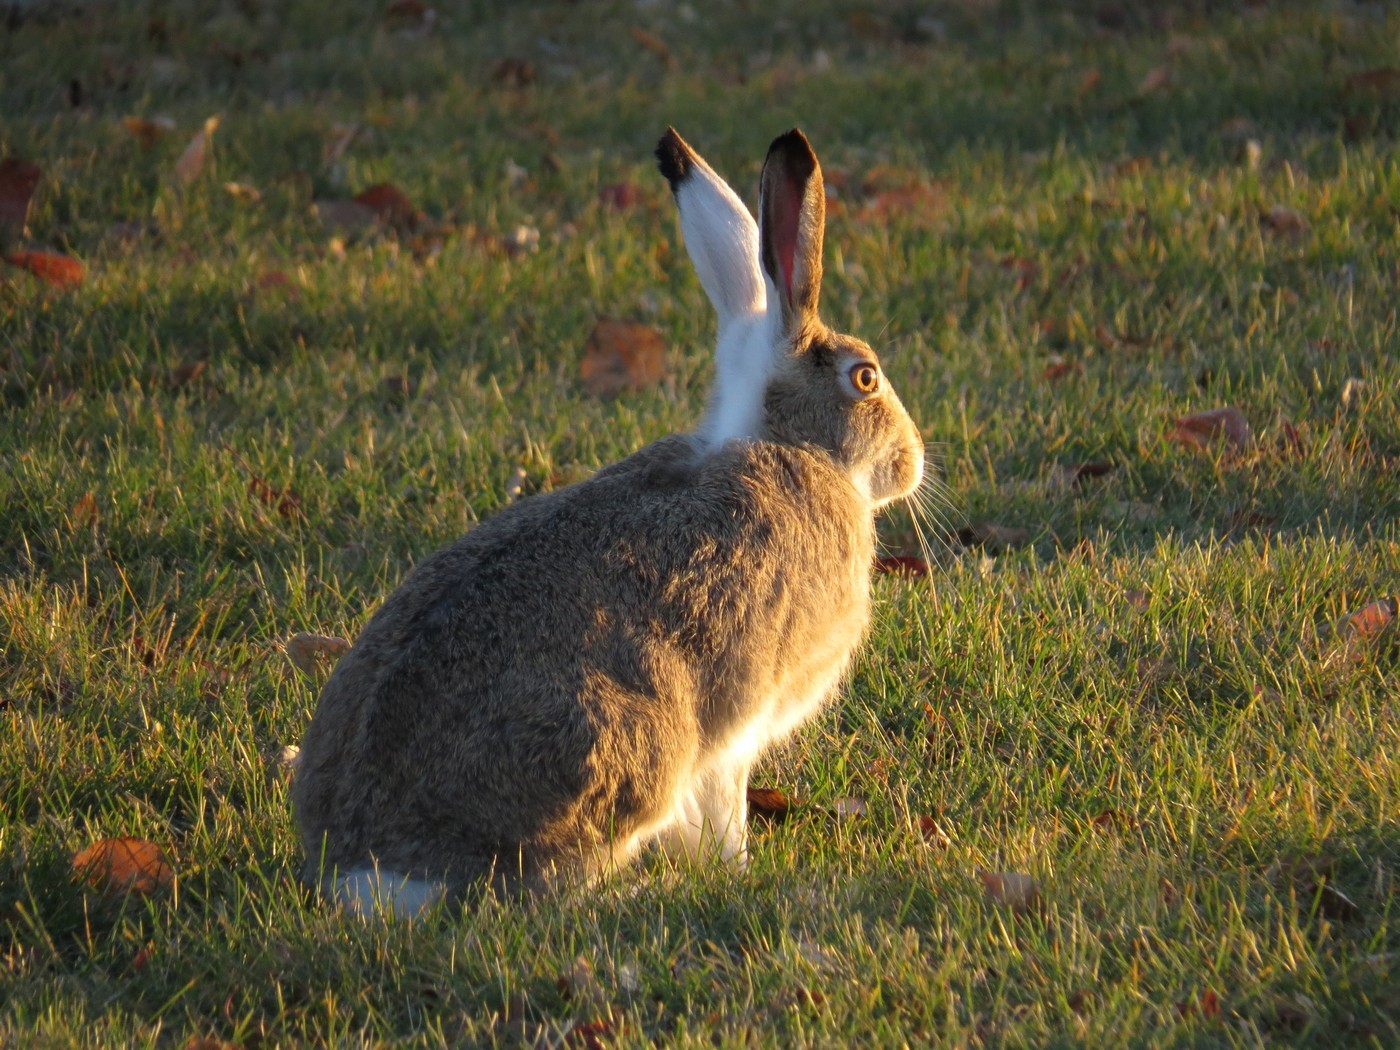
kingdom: Animalia
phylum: Chordata
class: Mammalia
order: Lagomorpha
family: Leporidae
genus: Lepus
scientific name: Lepus townsendii
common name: White-tailed jackrabbit
